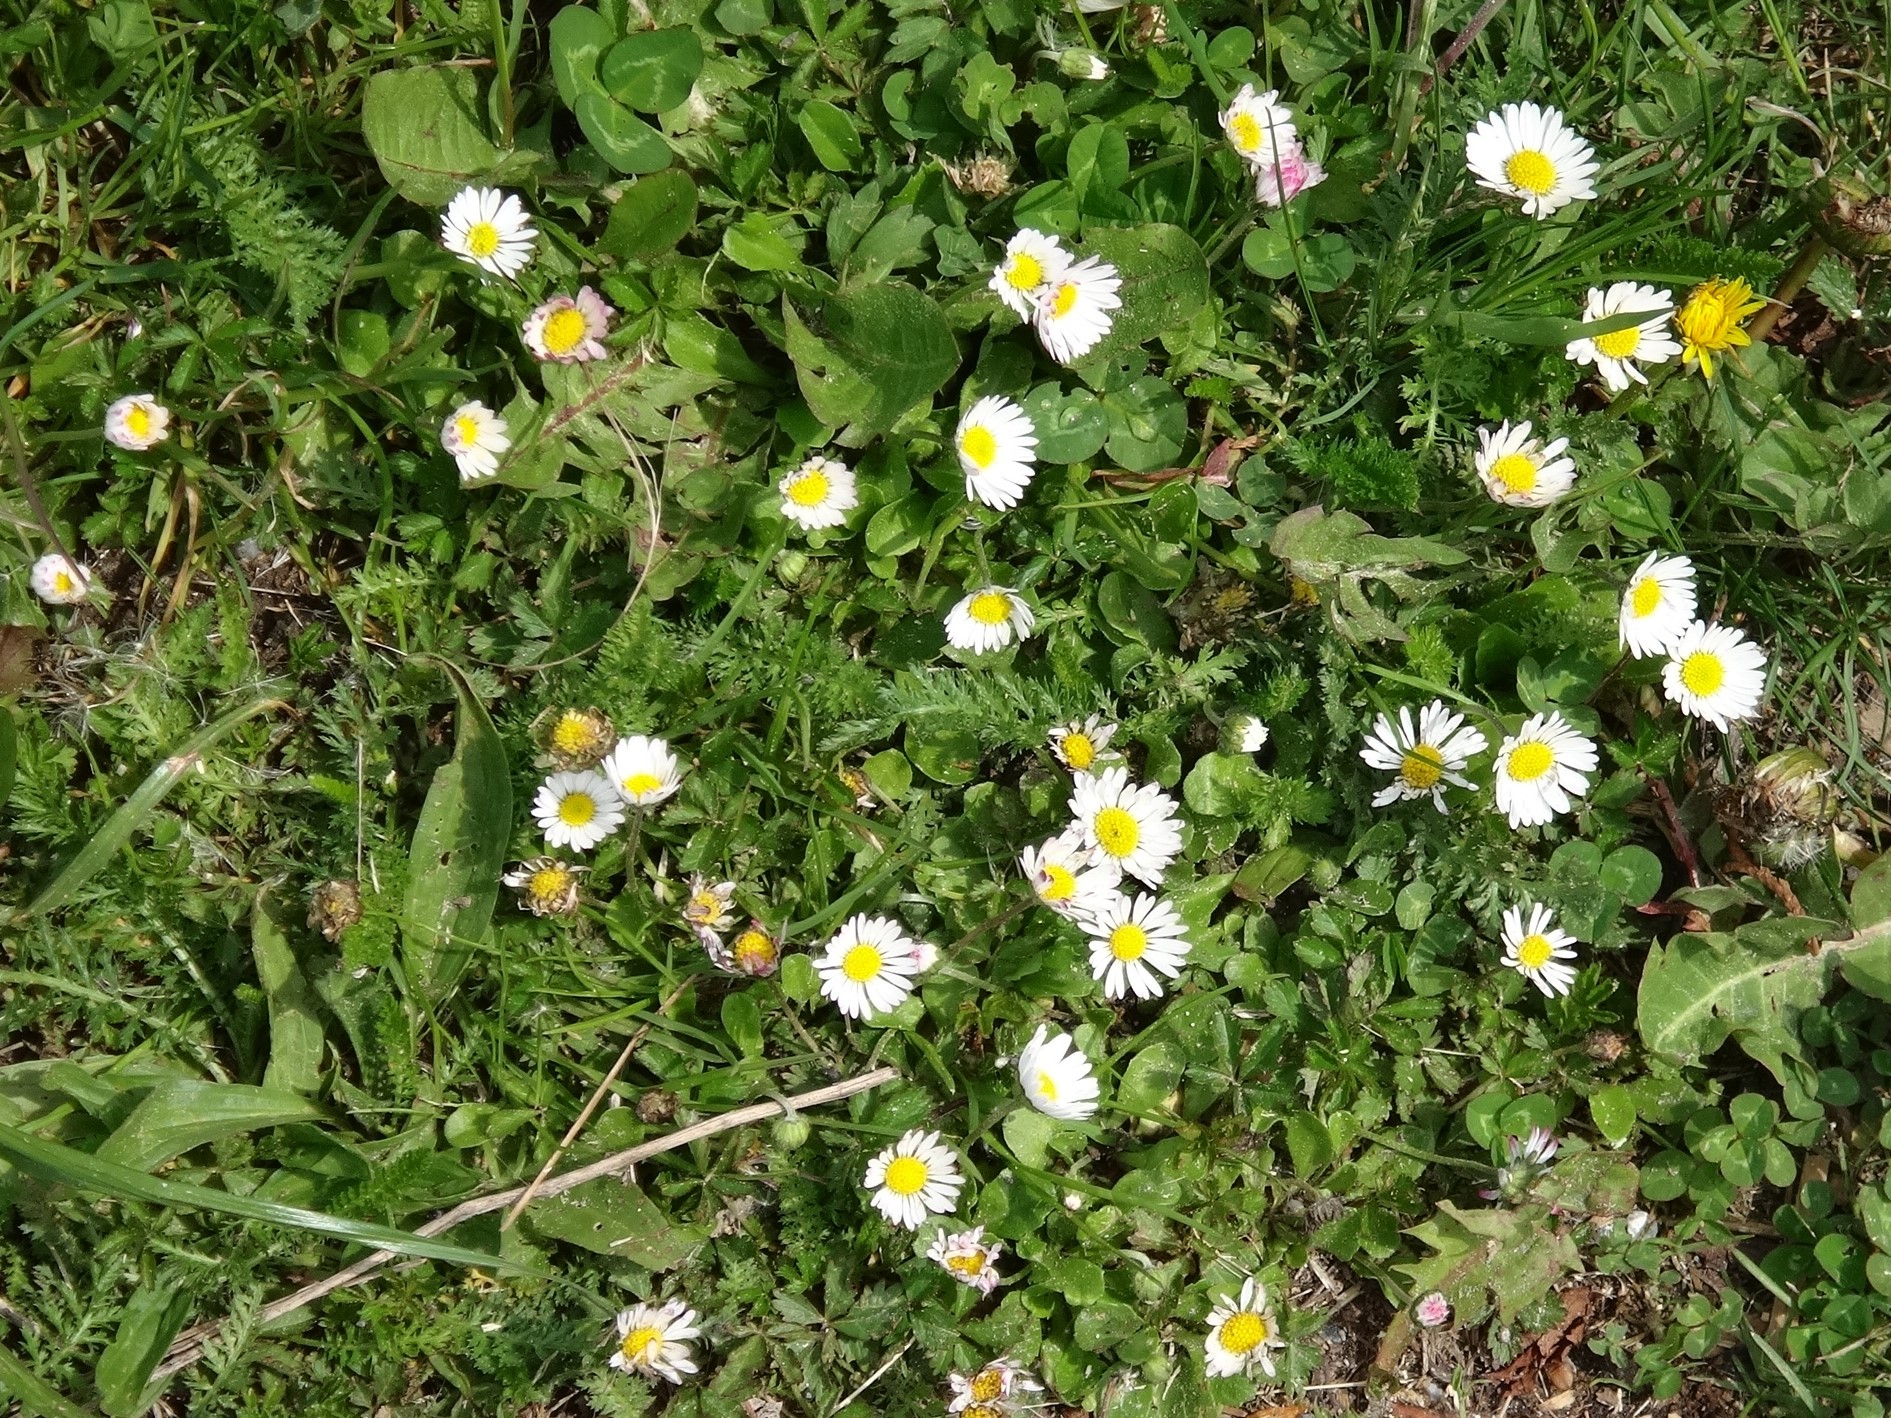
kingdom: Plantae
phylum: Tracheophyta
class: Magnoliopsida
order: Asterales
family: Asteraceae
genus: Bellis
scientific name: Bellis perennis
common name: Lawndaisy
